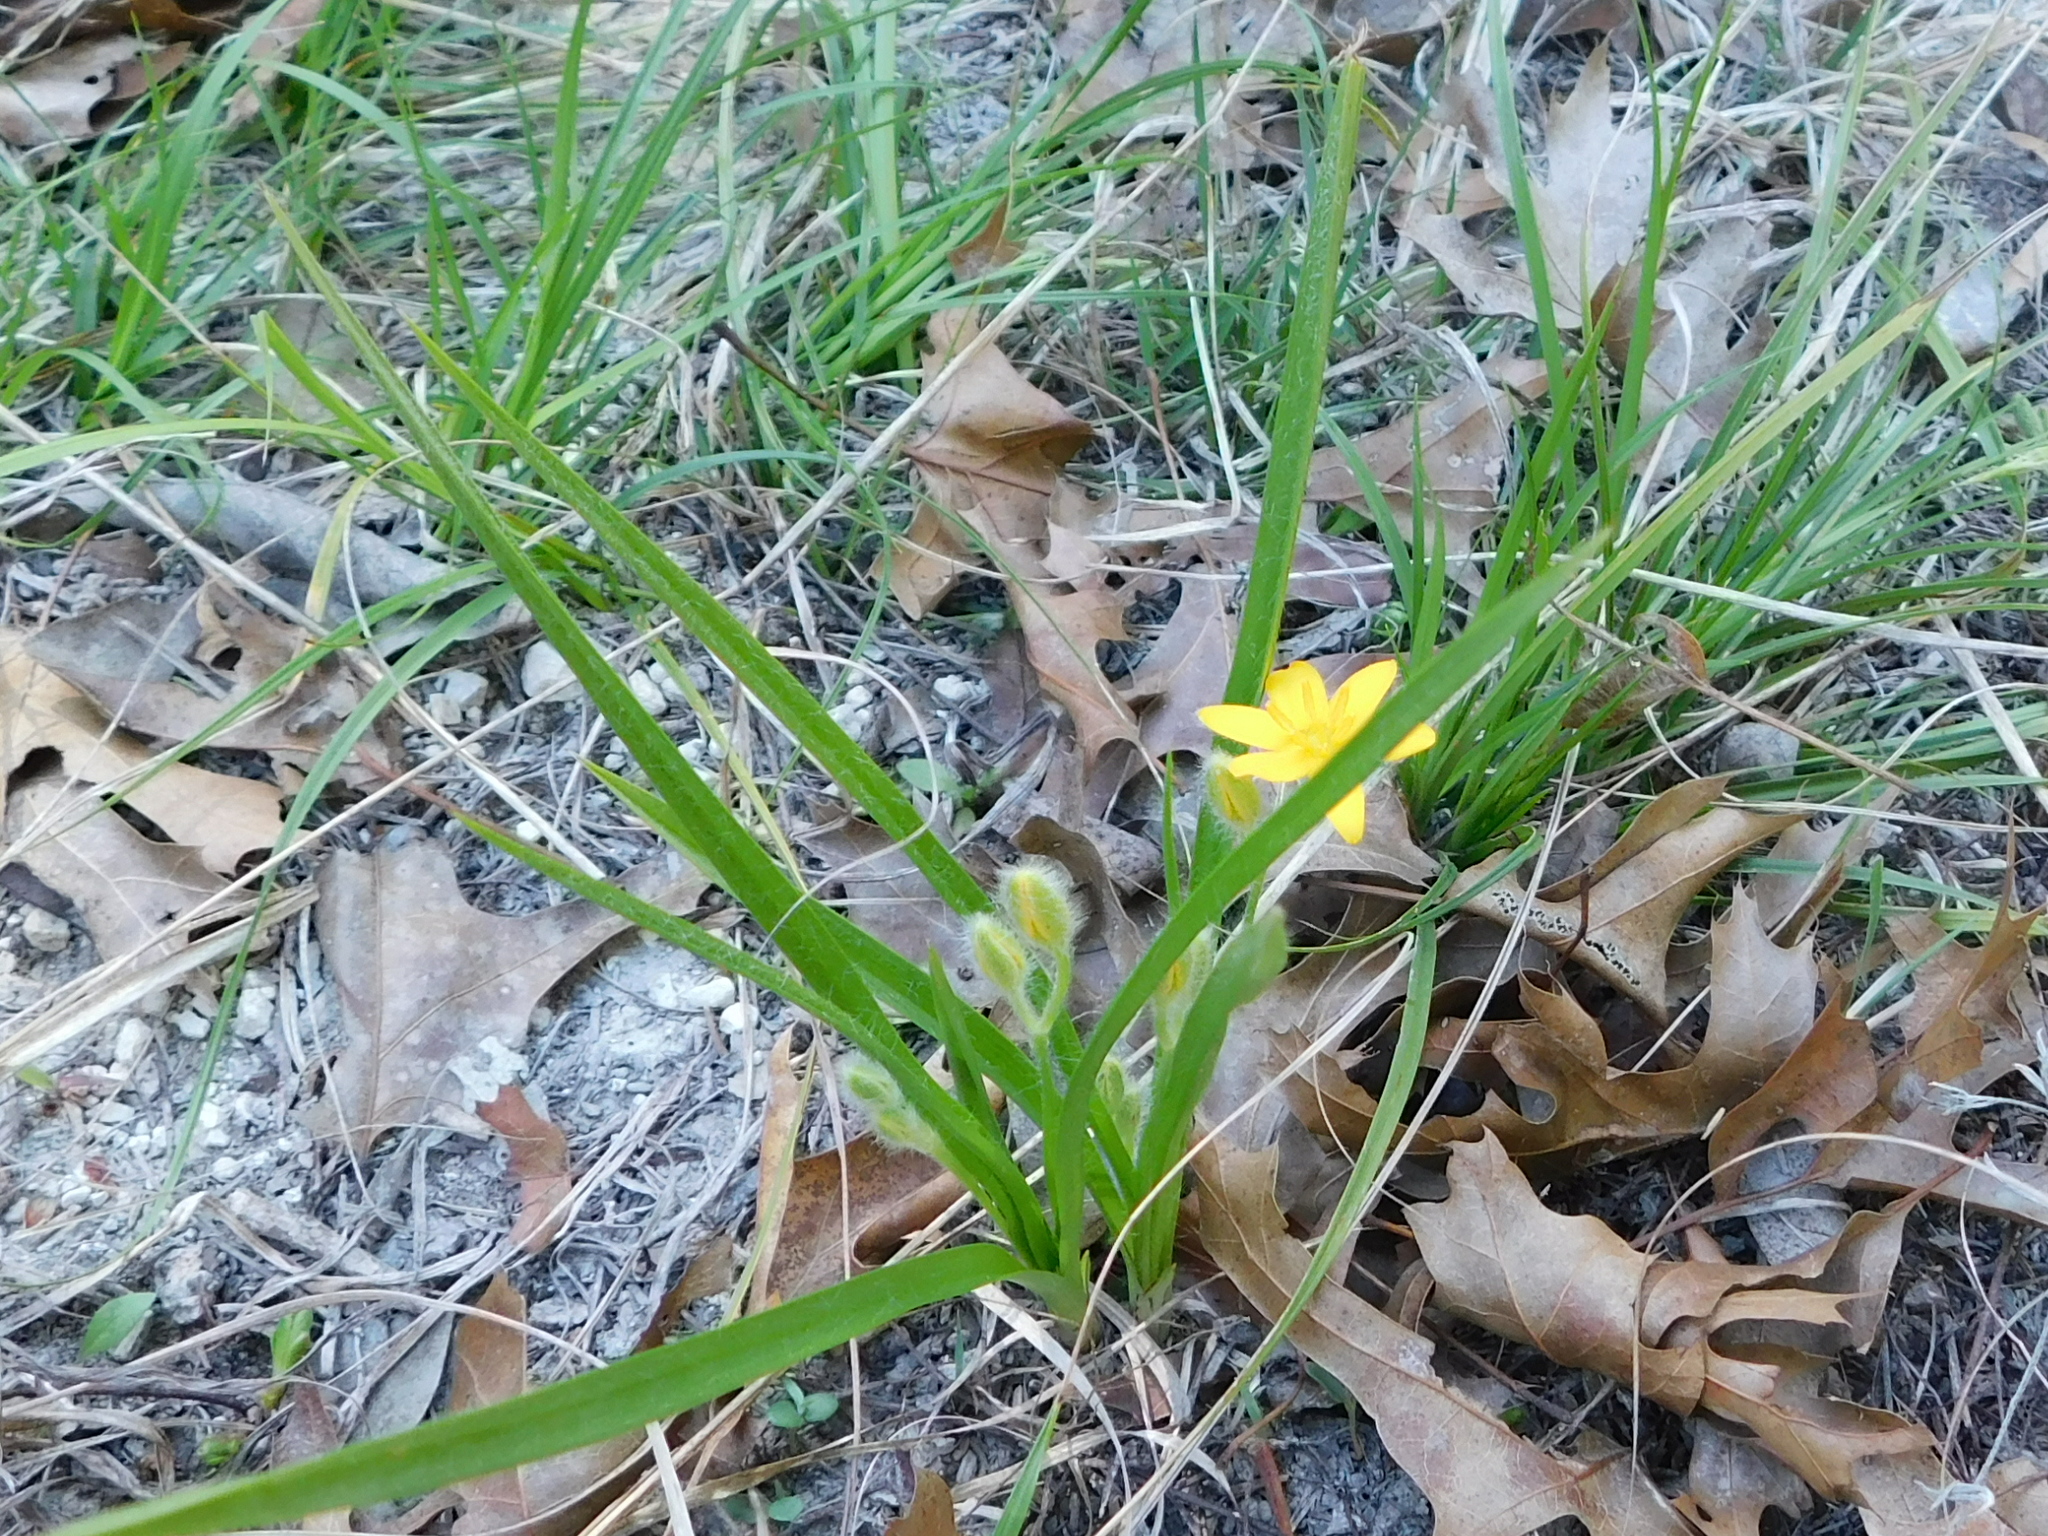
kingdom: Plantae
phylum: Tracheophyta
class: Liliopsida
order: Asparagales
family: Hypoxidaceae
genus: Hypoxis
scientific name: Hypoxis hirsuta
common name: Common goldstar
